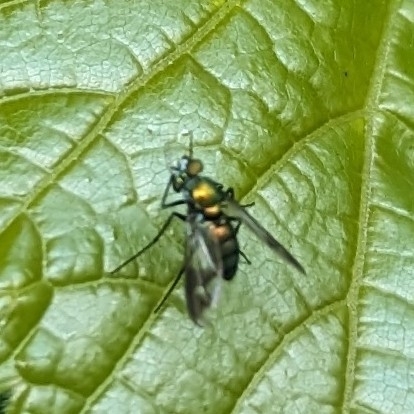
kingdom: Animalia
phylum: Arthropoda
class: Insecta
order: Diptera
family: Dolichopodidae
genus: Condylostylus
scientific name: Condylostylus patibulatus
